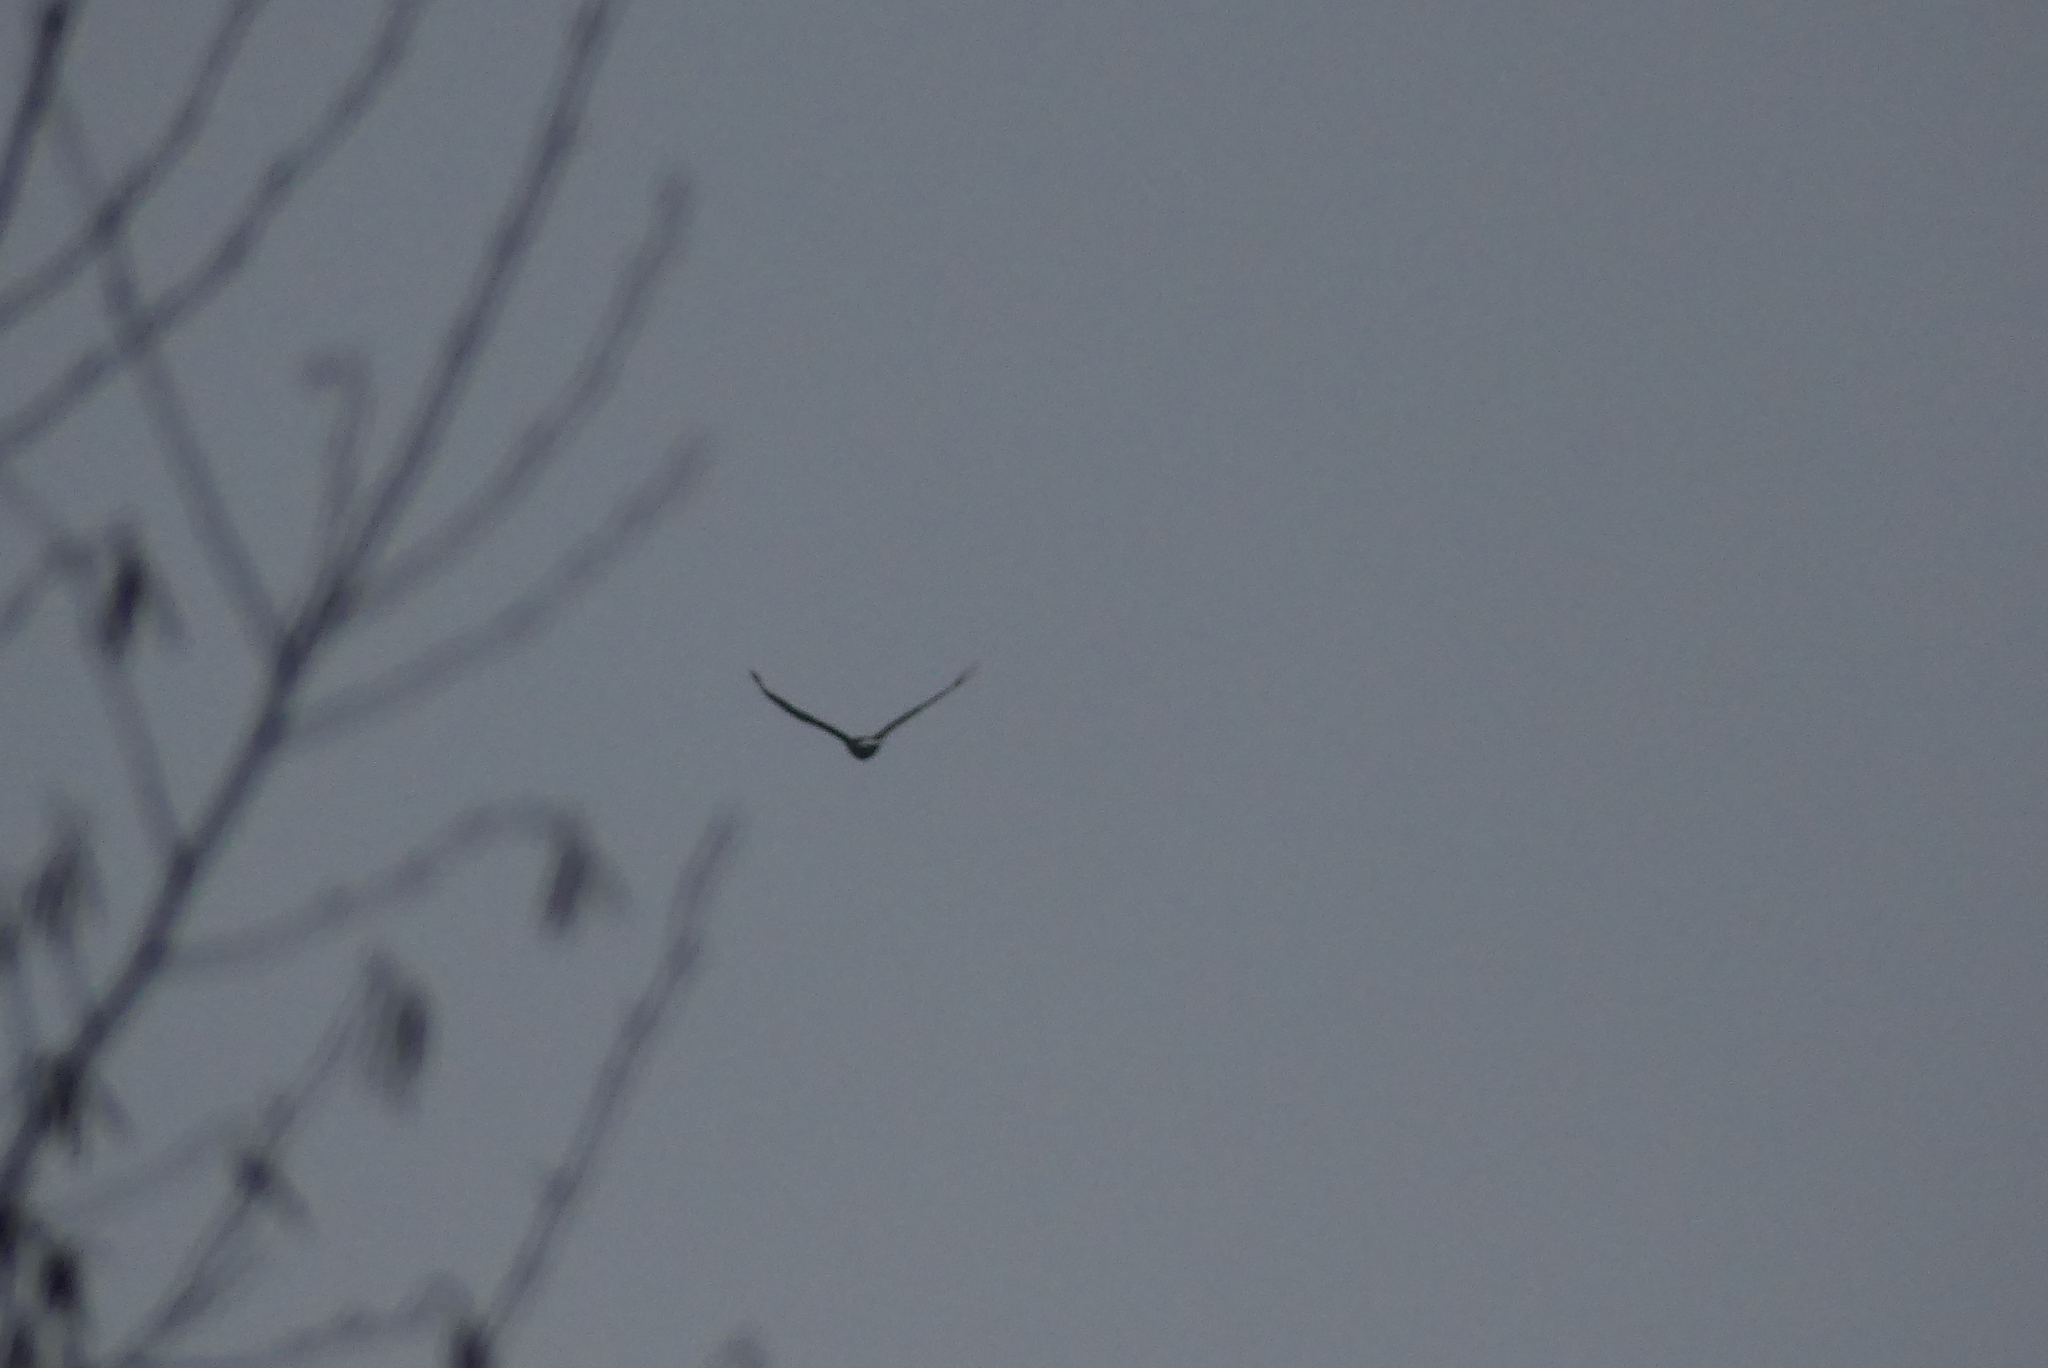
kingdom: Animalia
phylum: Chordata
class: Aves
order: Accipitriformes
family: Accipitridae
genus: Haliaeetus
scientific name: Haliaeetus leucocephalus
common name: Bald eagle
